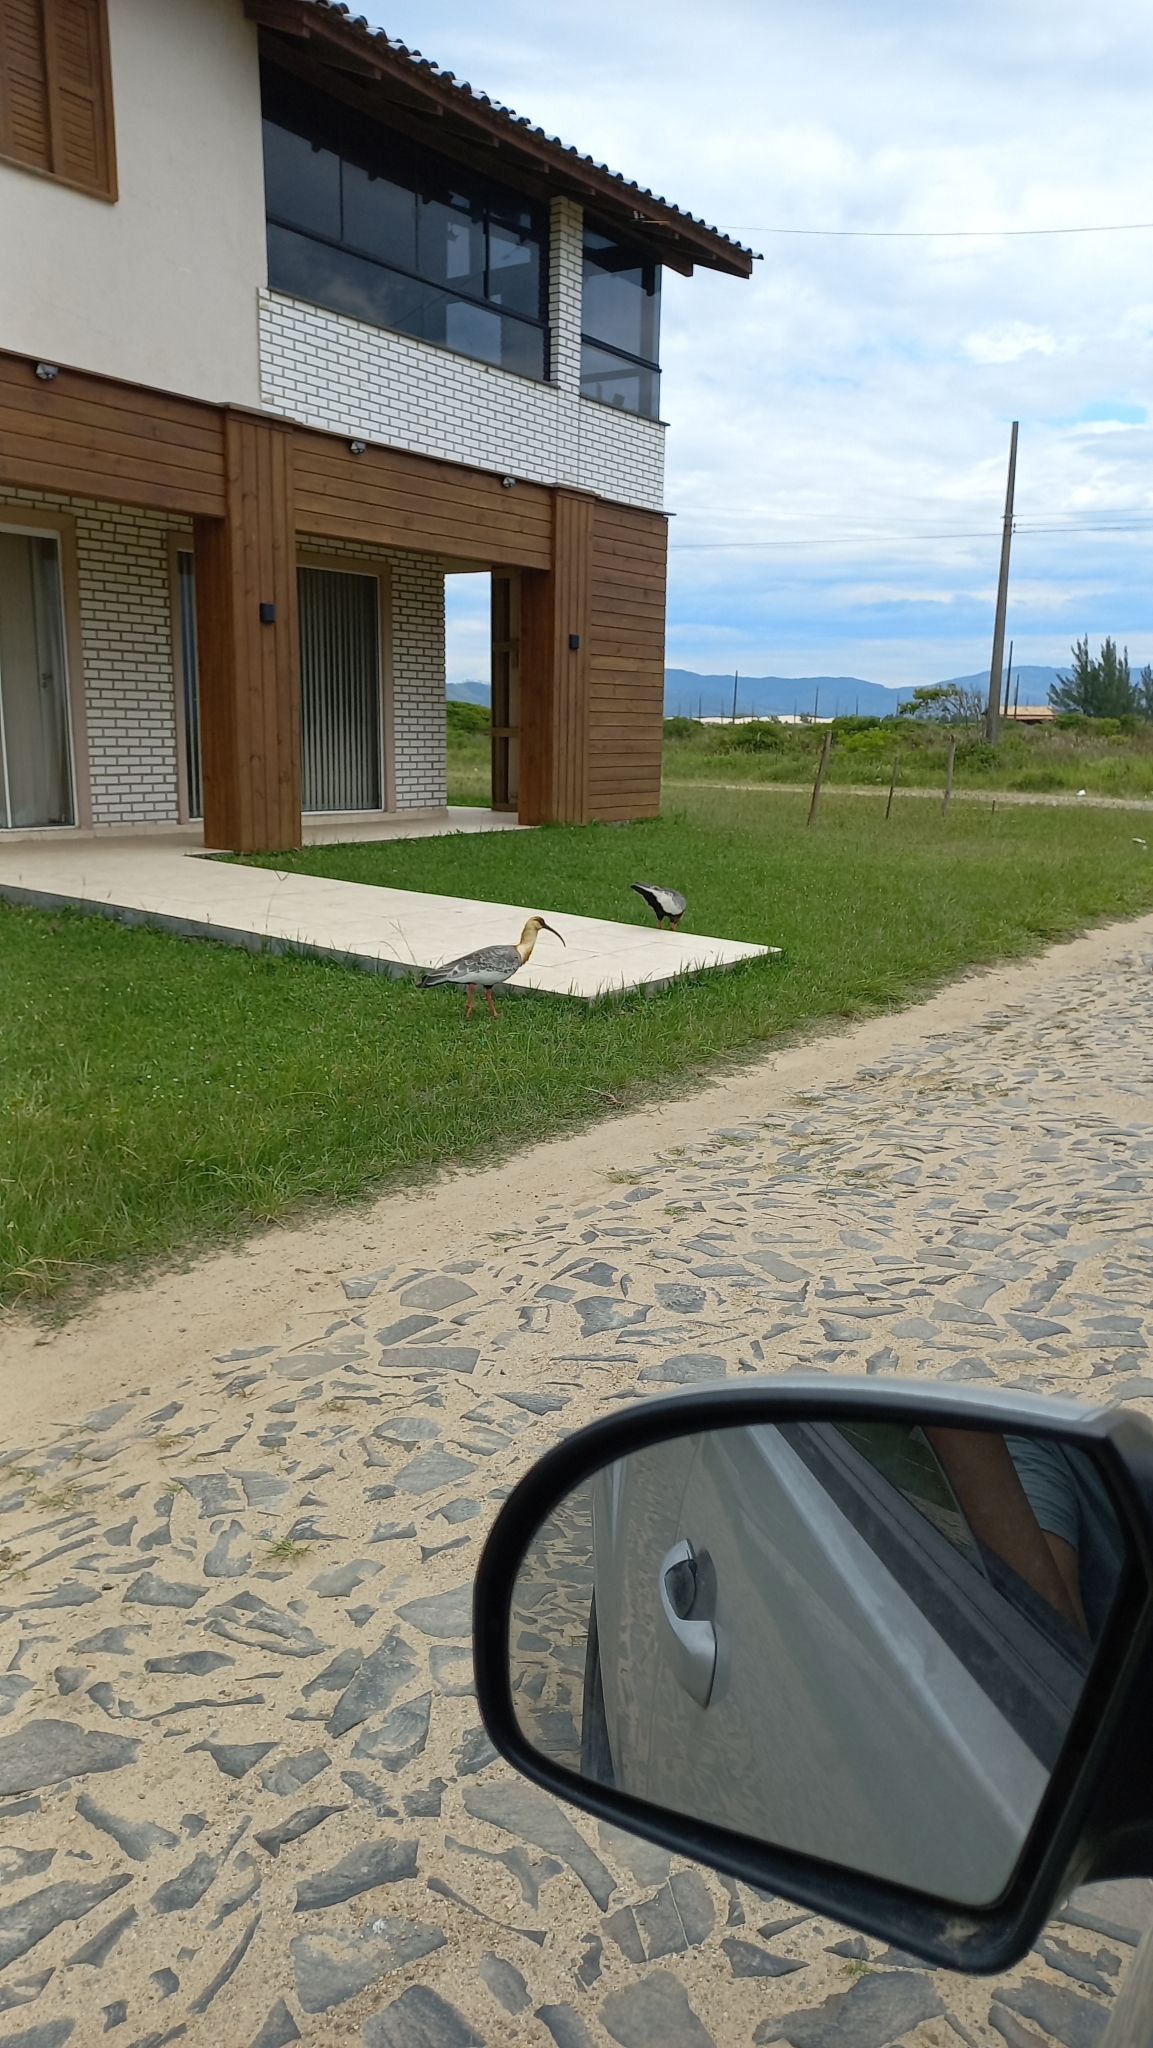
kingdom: Animalia
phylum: Chordata
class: Aves
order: Pelecaniformes
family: Threskiornithidae
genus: Theristicus
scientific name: Theristicus caudatus
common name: Buff-necked ibis
